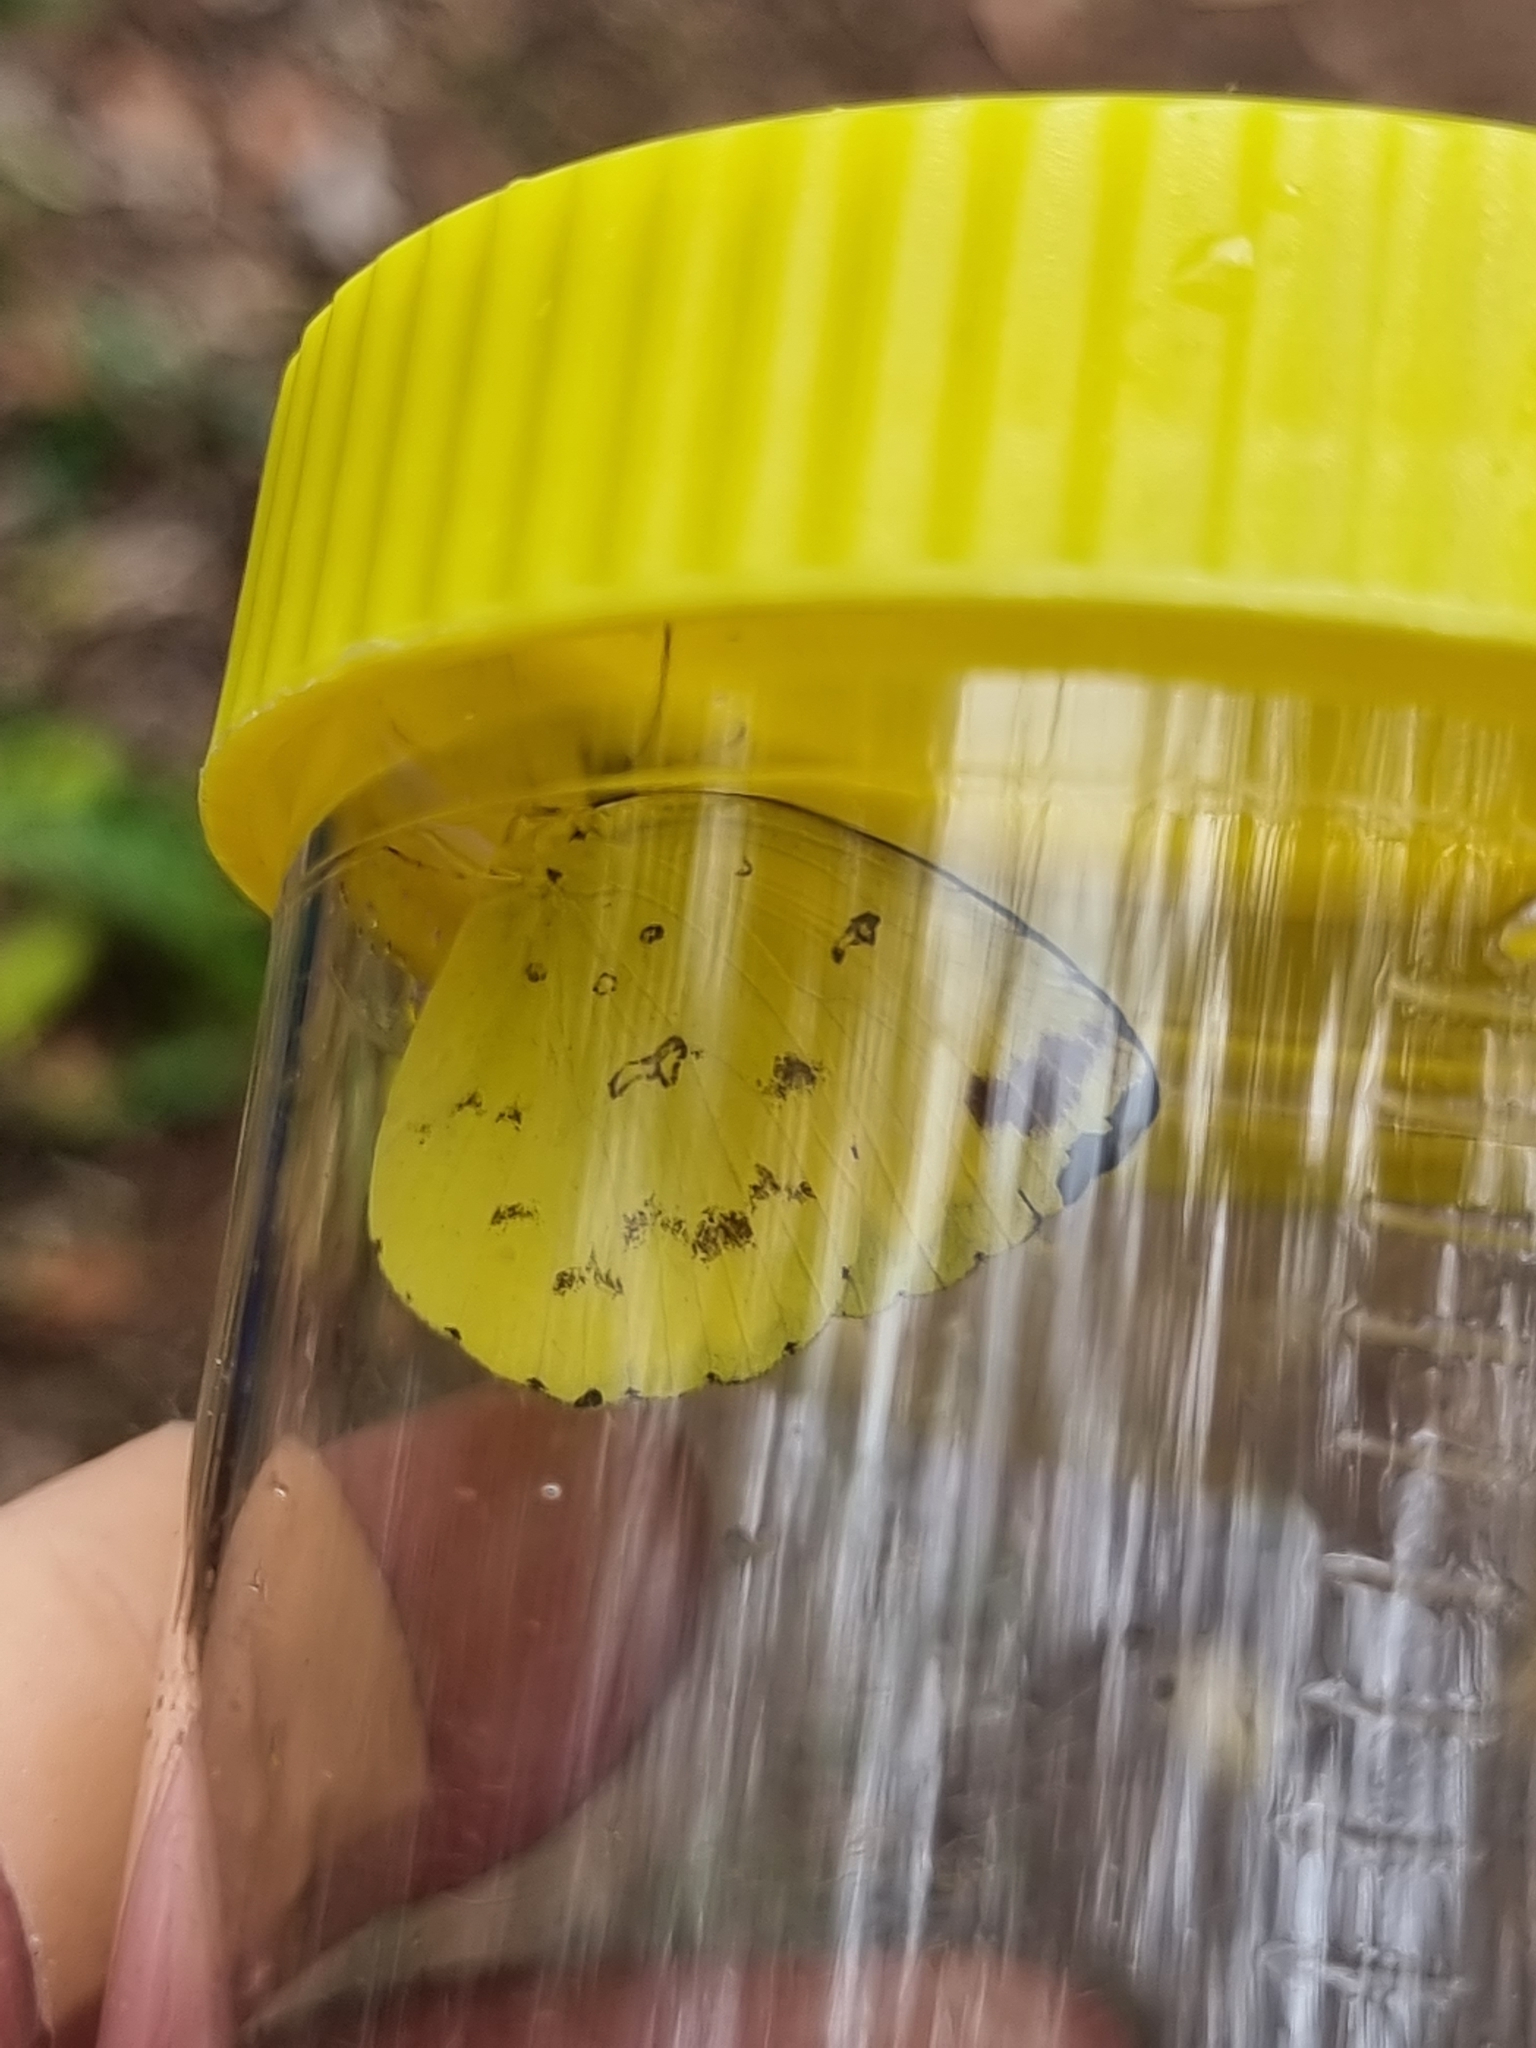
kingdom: Animalia
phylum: Arthropoda
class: Insecta
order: Lepidoptera
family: Pieridae
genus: Eurema
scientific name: Eurema hecabe
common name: Pale grass yellow
